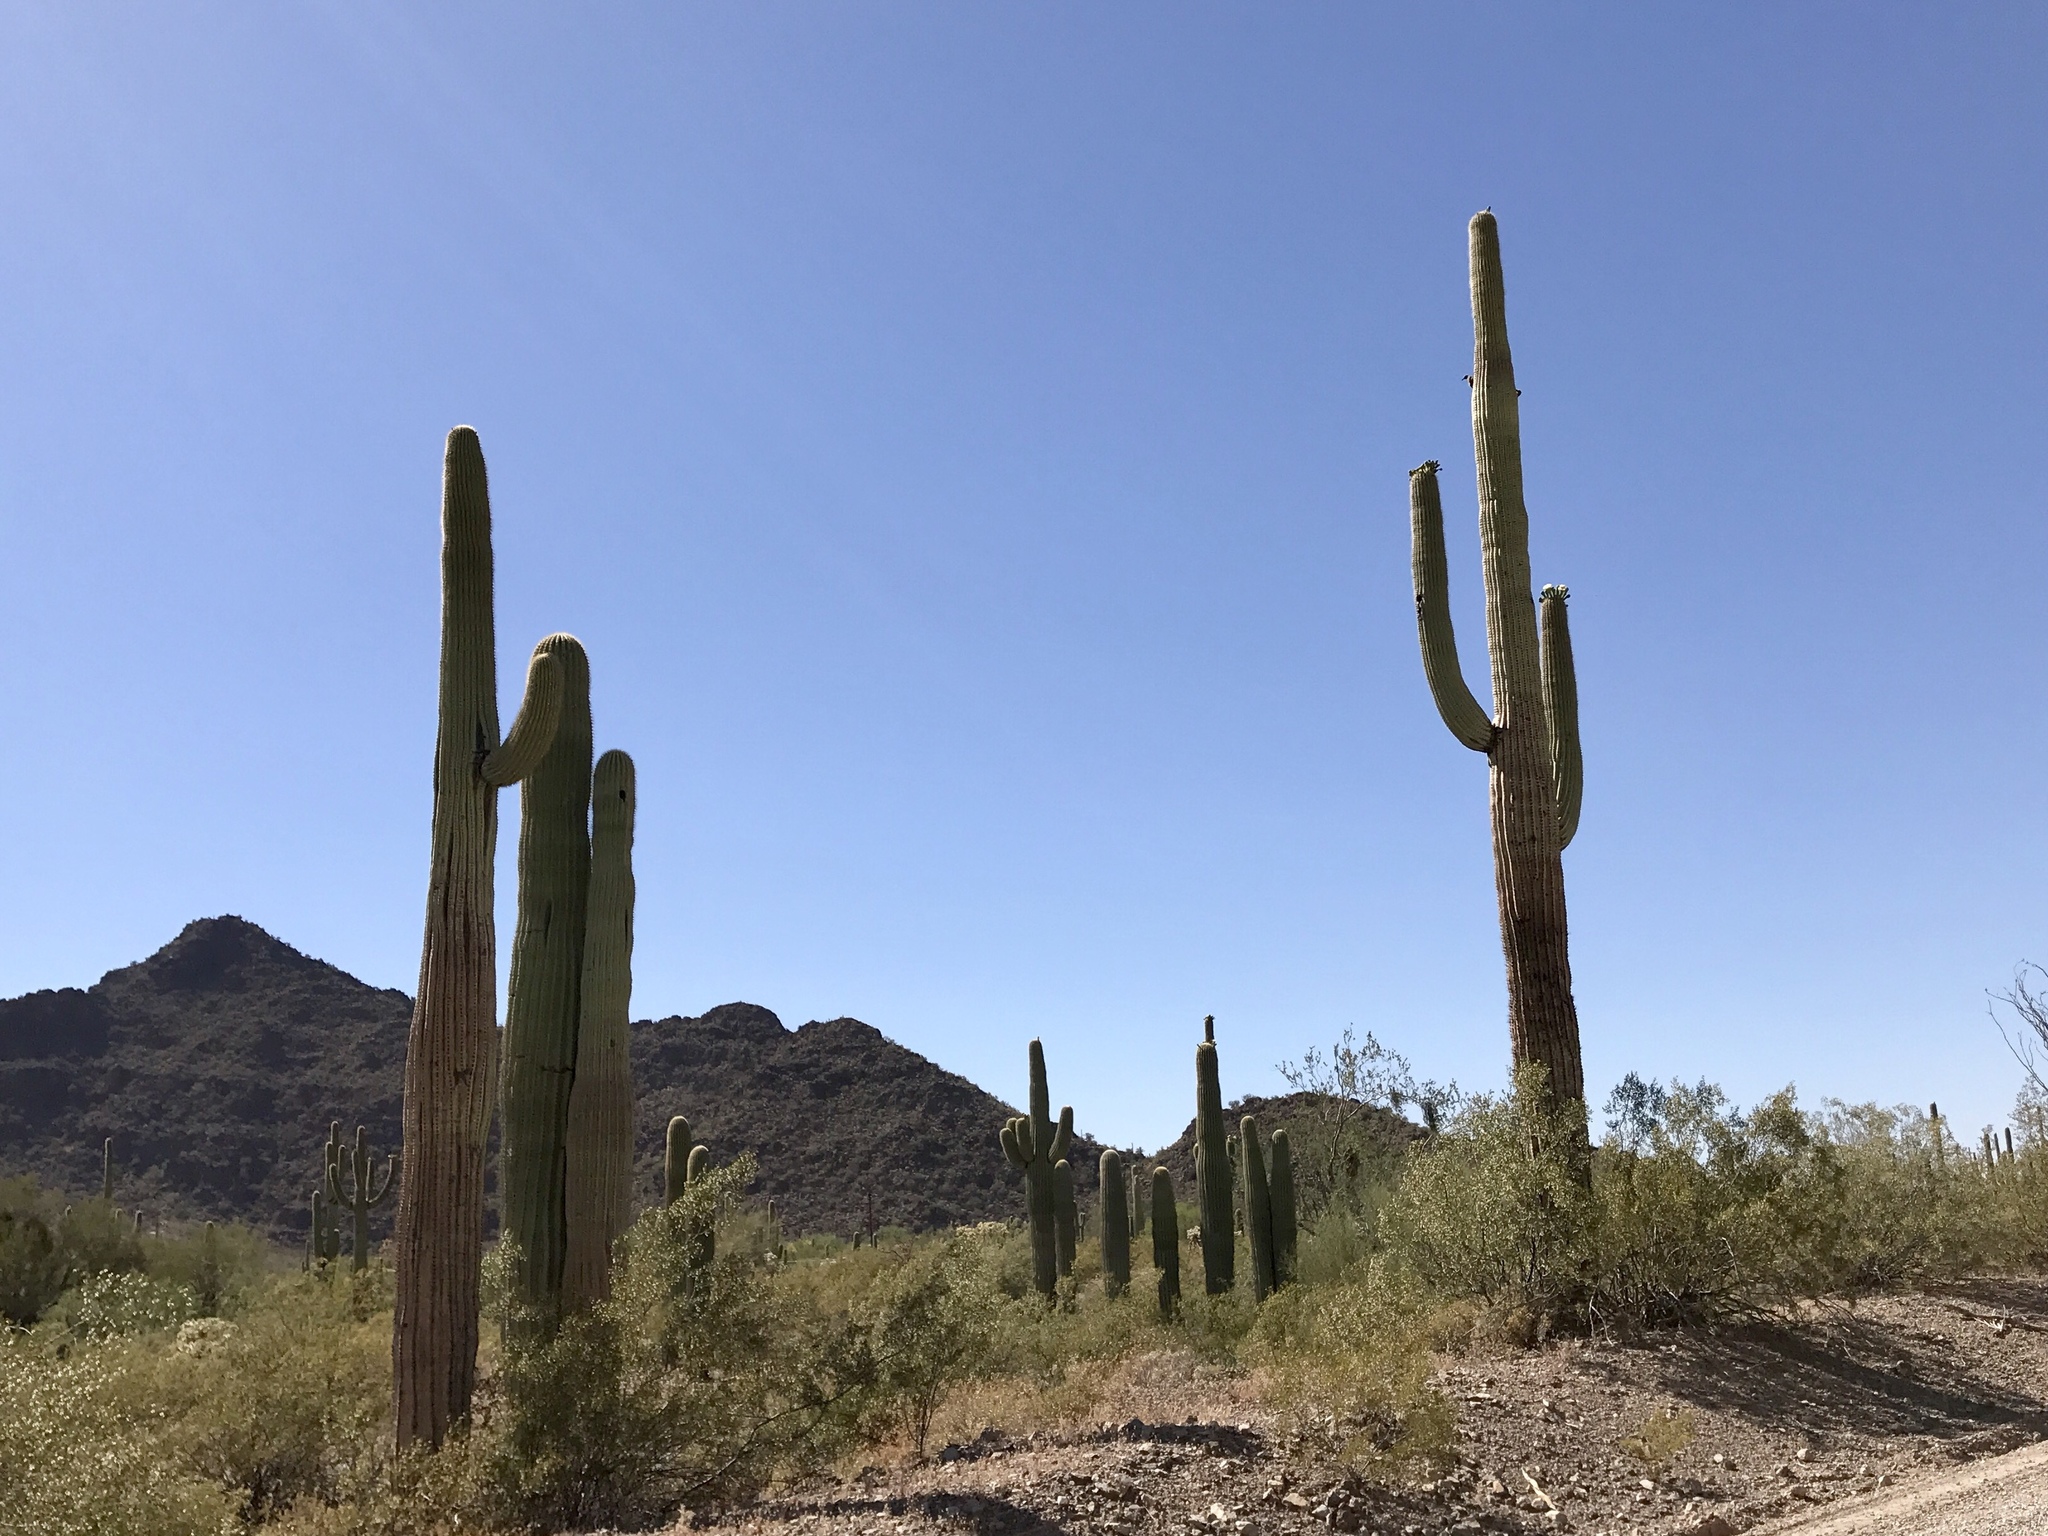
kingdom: Plantae
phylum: Tracheophyta
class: Magnoliopsida
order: Caryophyllales
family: Cactaceae
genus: Carnegiea
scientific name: Carnegiea gigantea
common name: Saguaro
